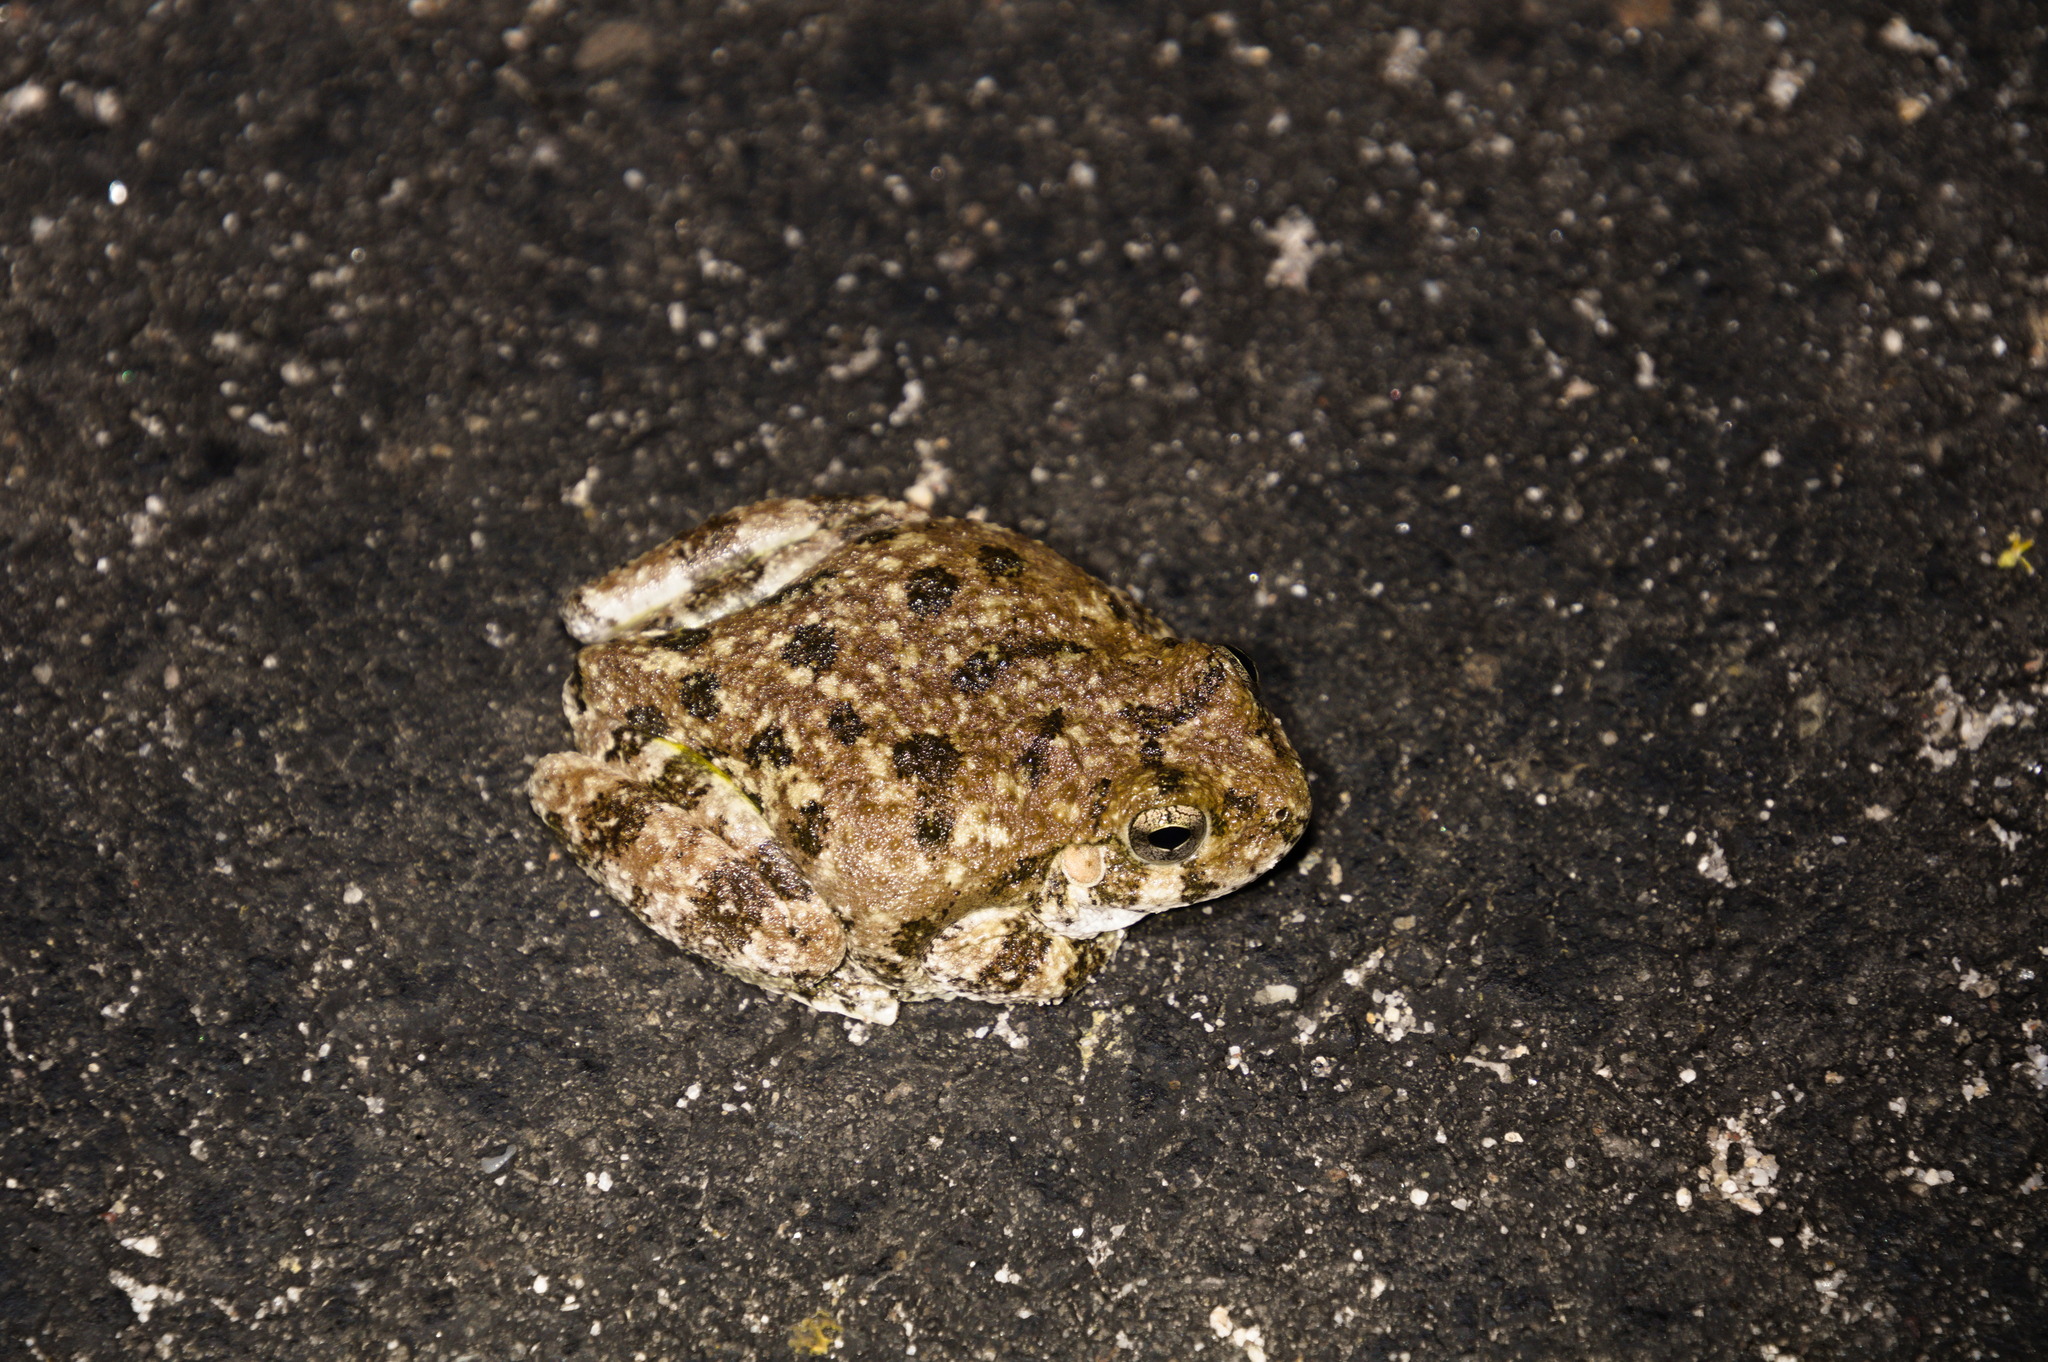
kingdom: Animalia
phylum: Chordata
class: Amphibia
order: Anura
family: Hylidae
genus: Dryophytes
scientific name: Dryophytes arenicolor
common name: Canyon treefrog
